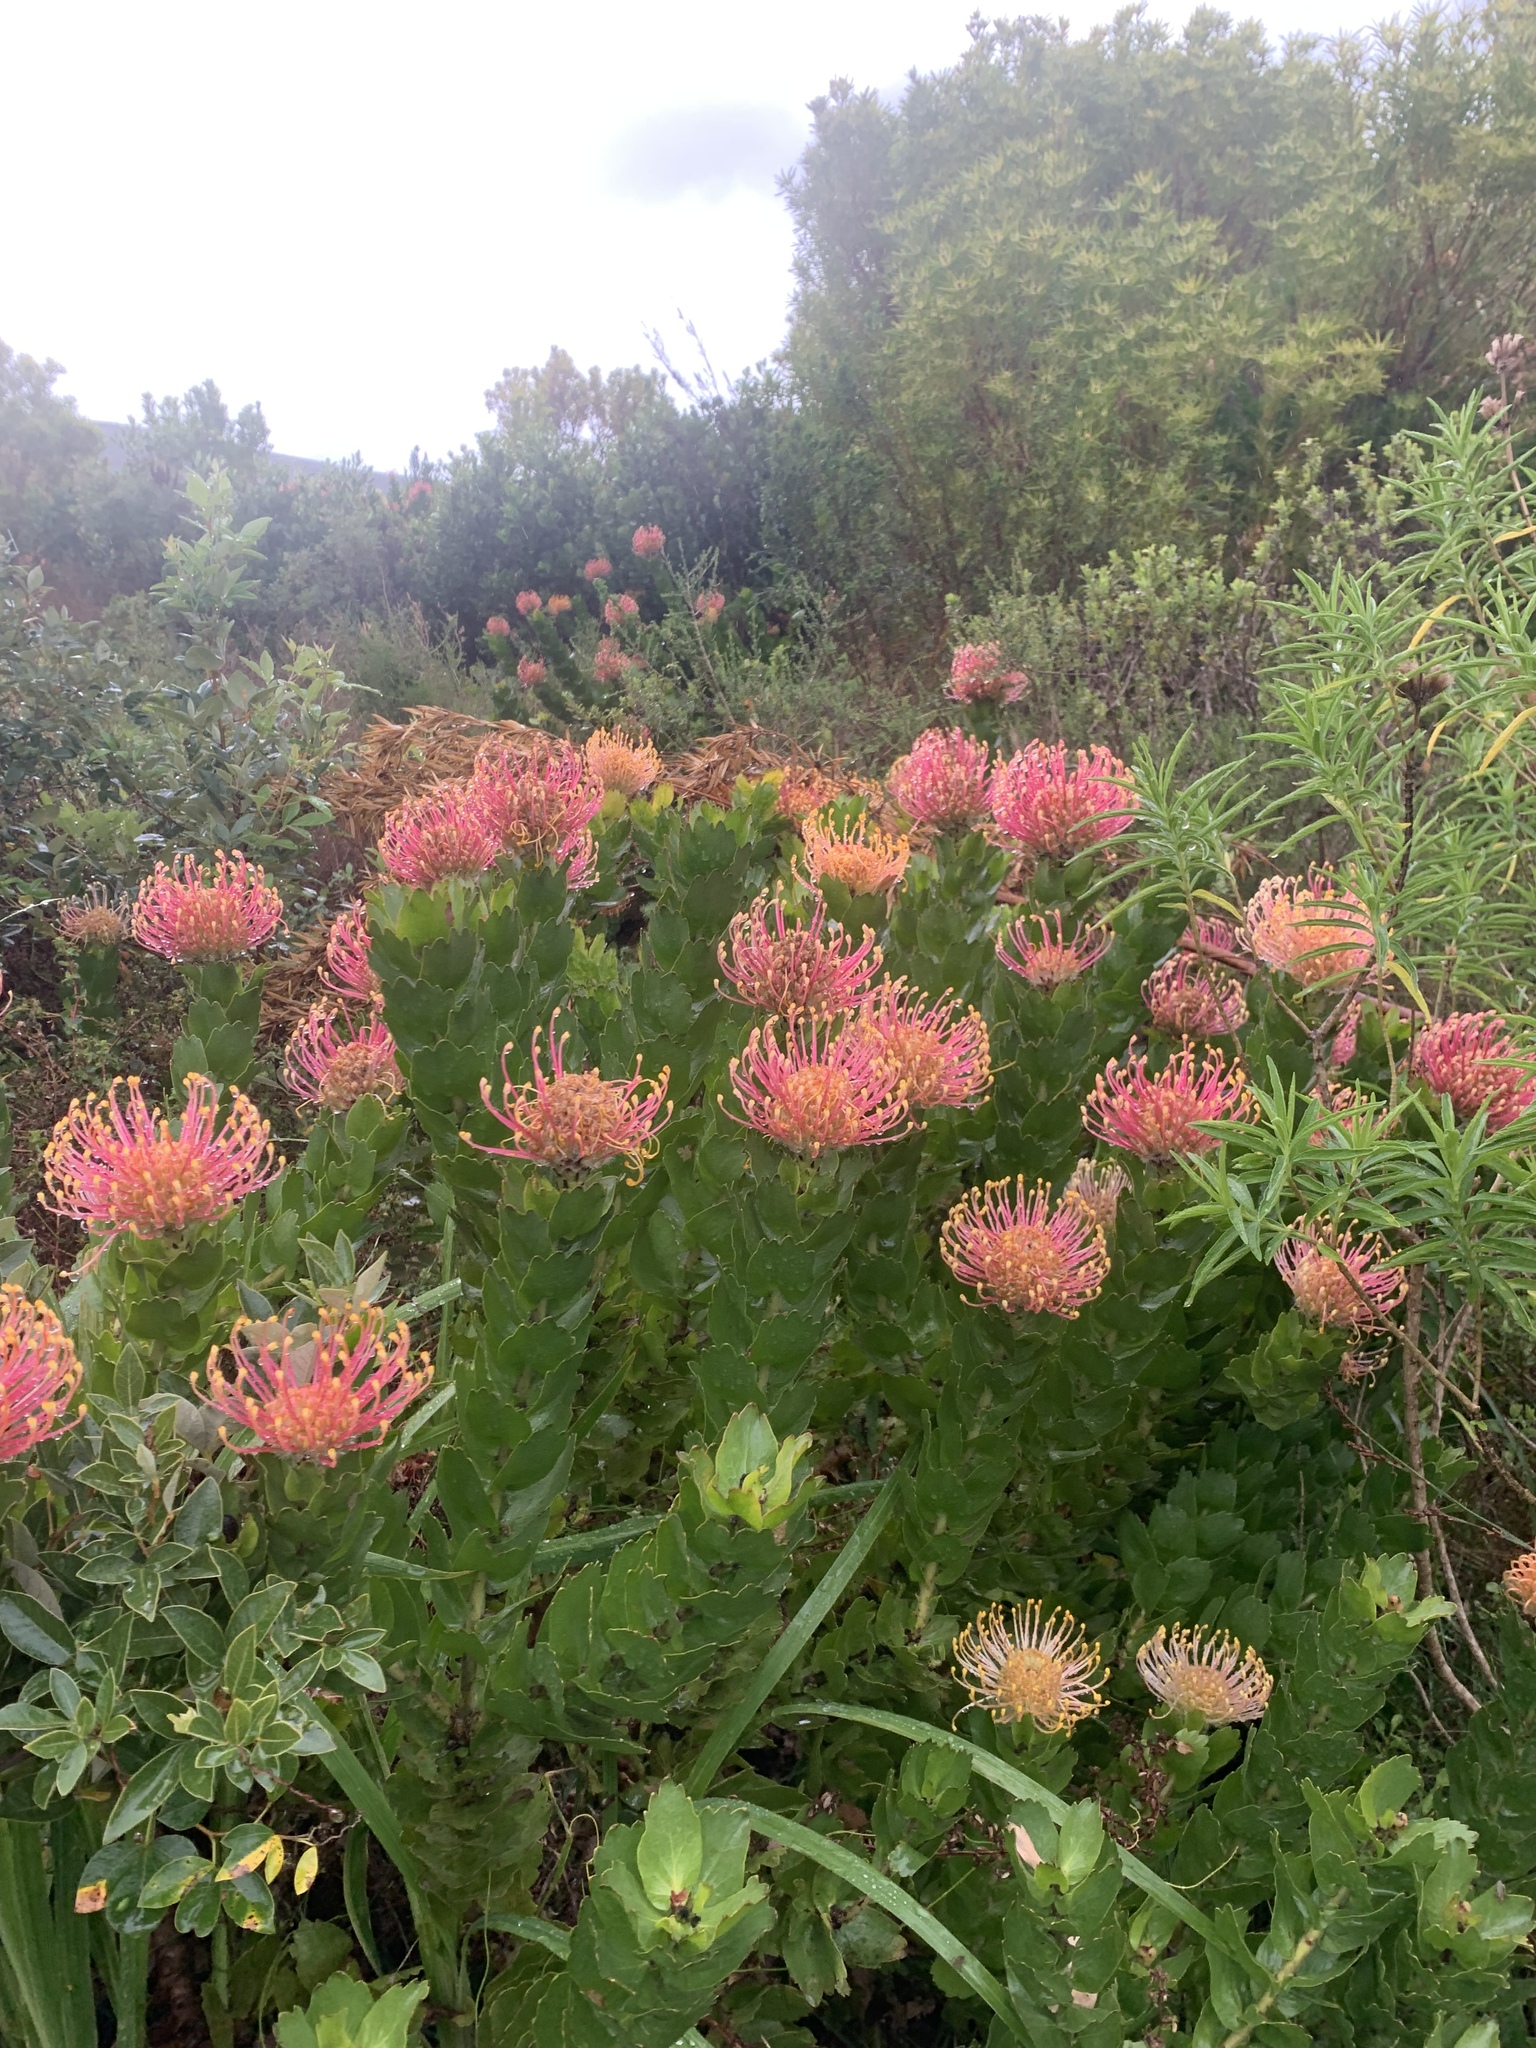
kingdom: Plantae
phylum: Tracheophyta
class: Magnoliopsida
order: Proteales
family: Proteaceae
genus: Leucospermum
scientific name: Leucospermum patersonii
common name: False tree pincushion
